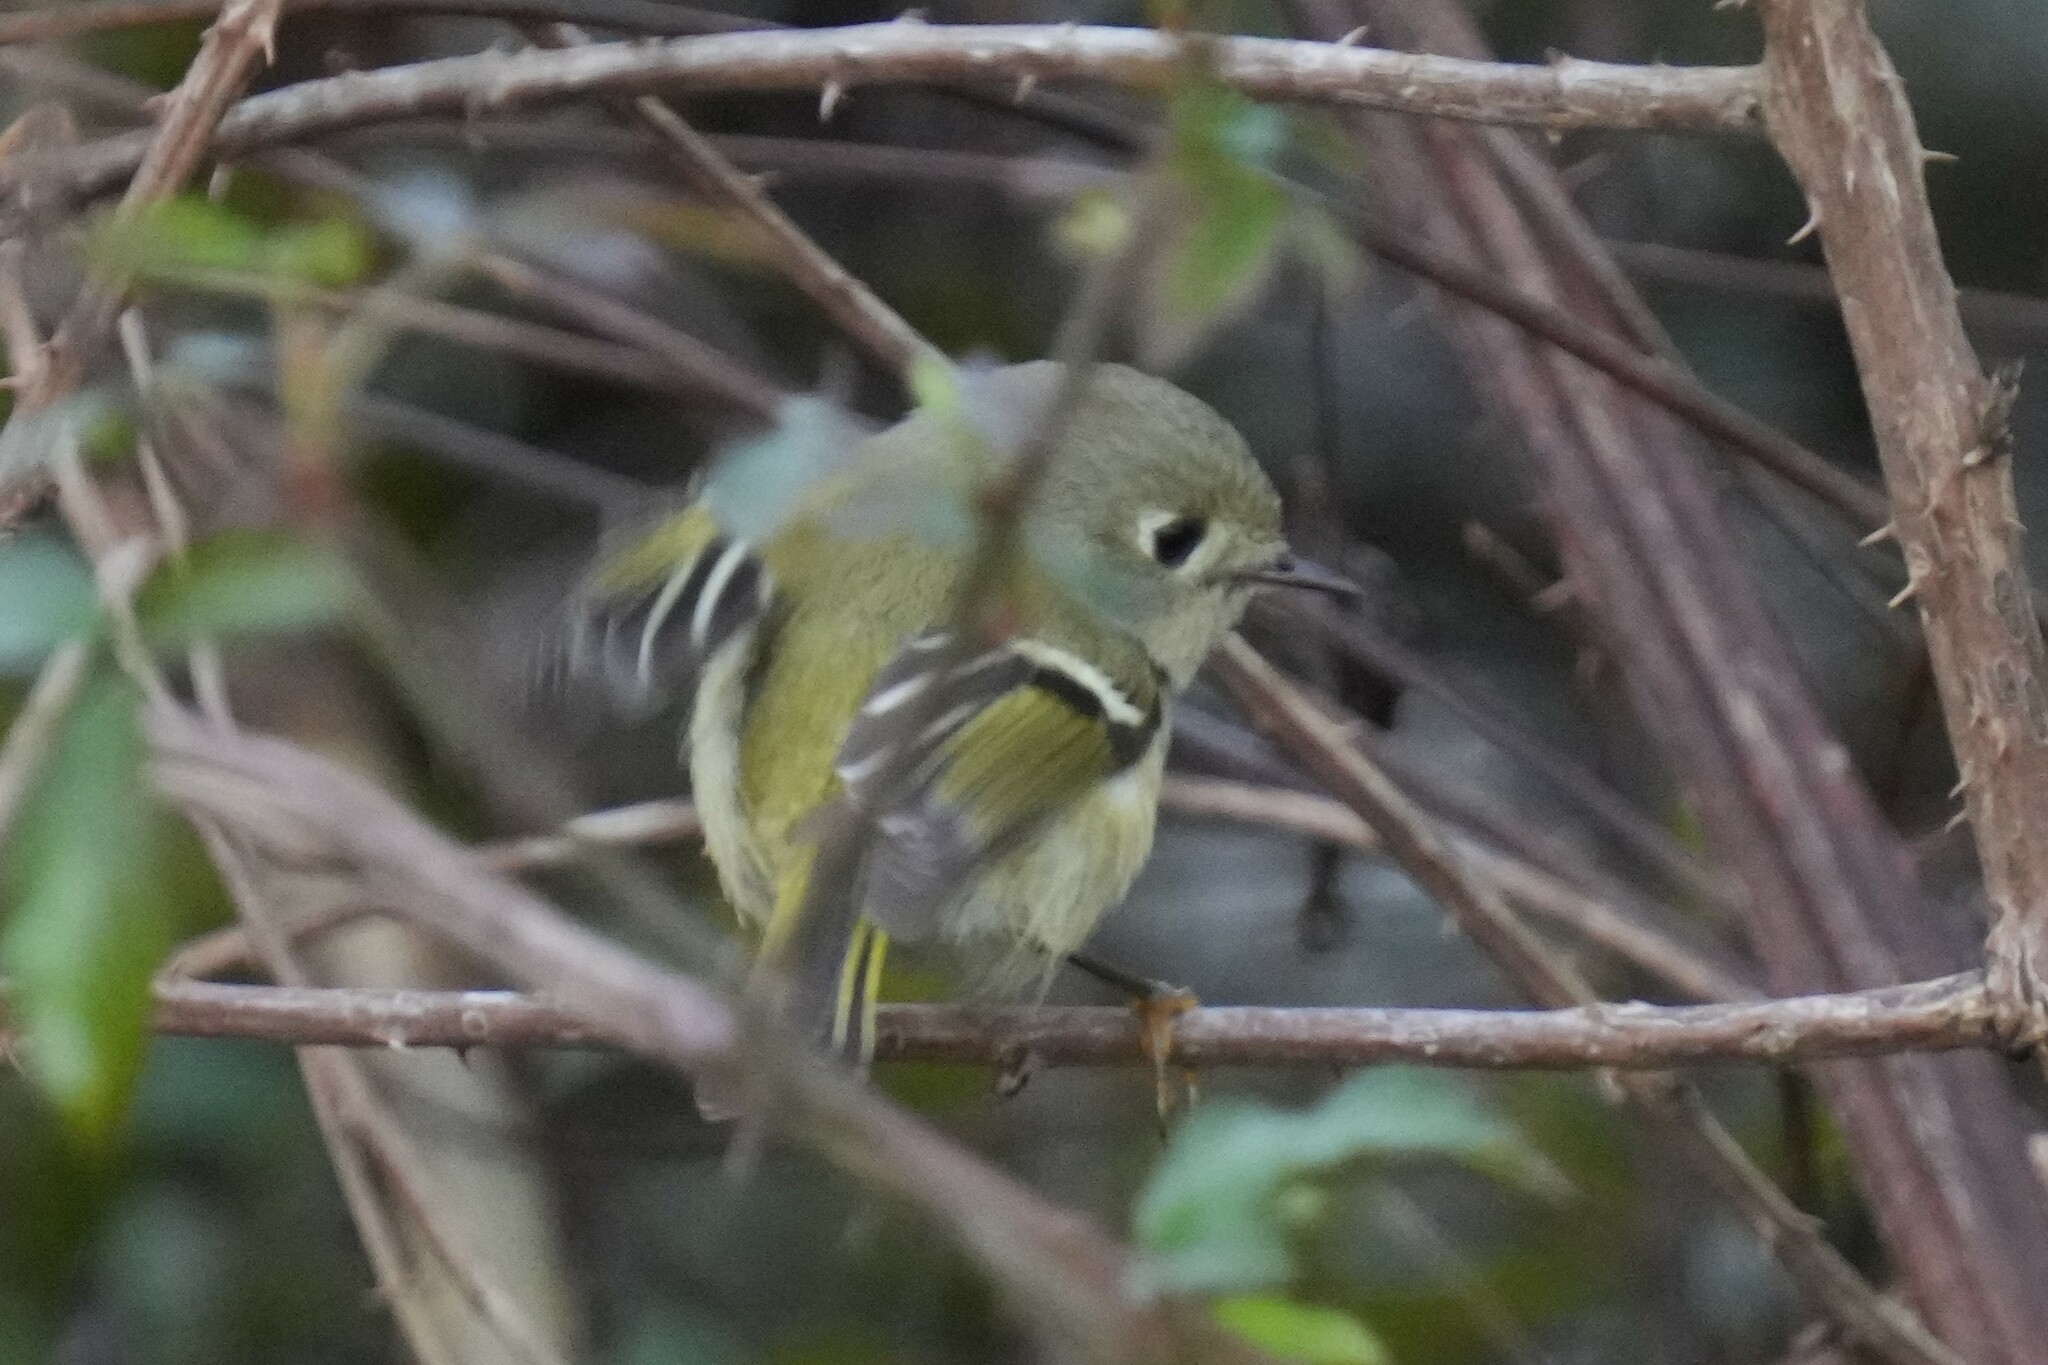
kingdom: Animalia
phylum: Chordata
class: Aves
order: Passeriformes
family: Regulidae
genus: Regulus
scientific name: Regulus calendula
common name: Ruby-crowned kinglet
